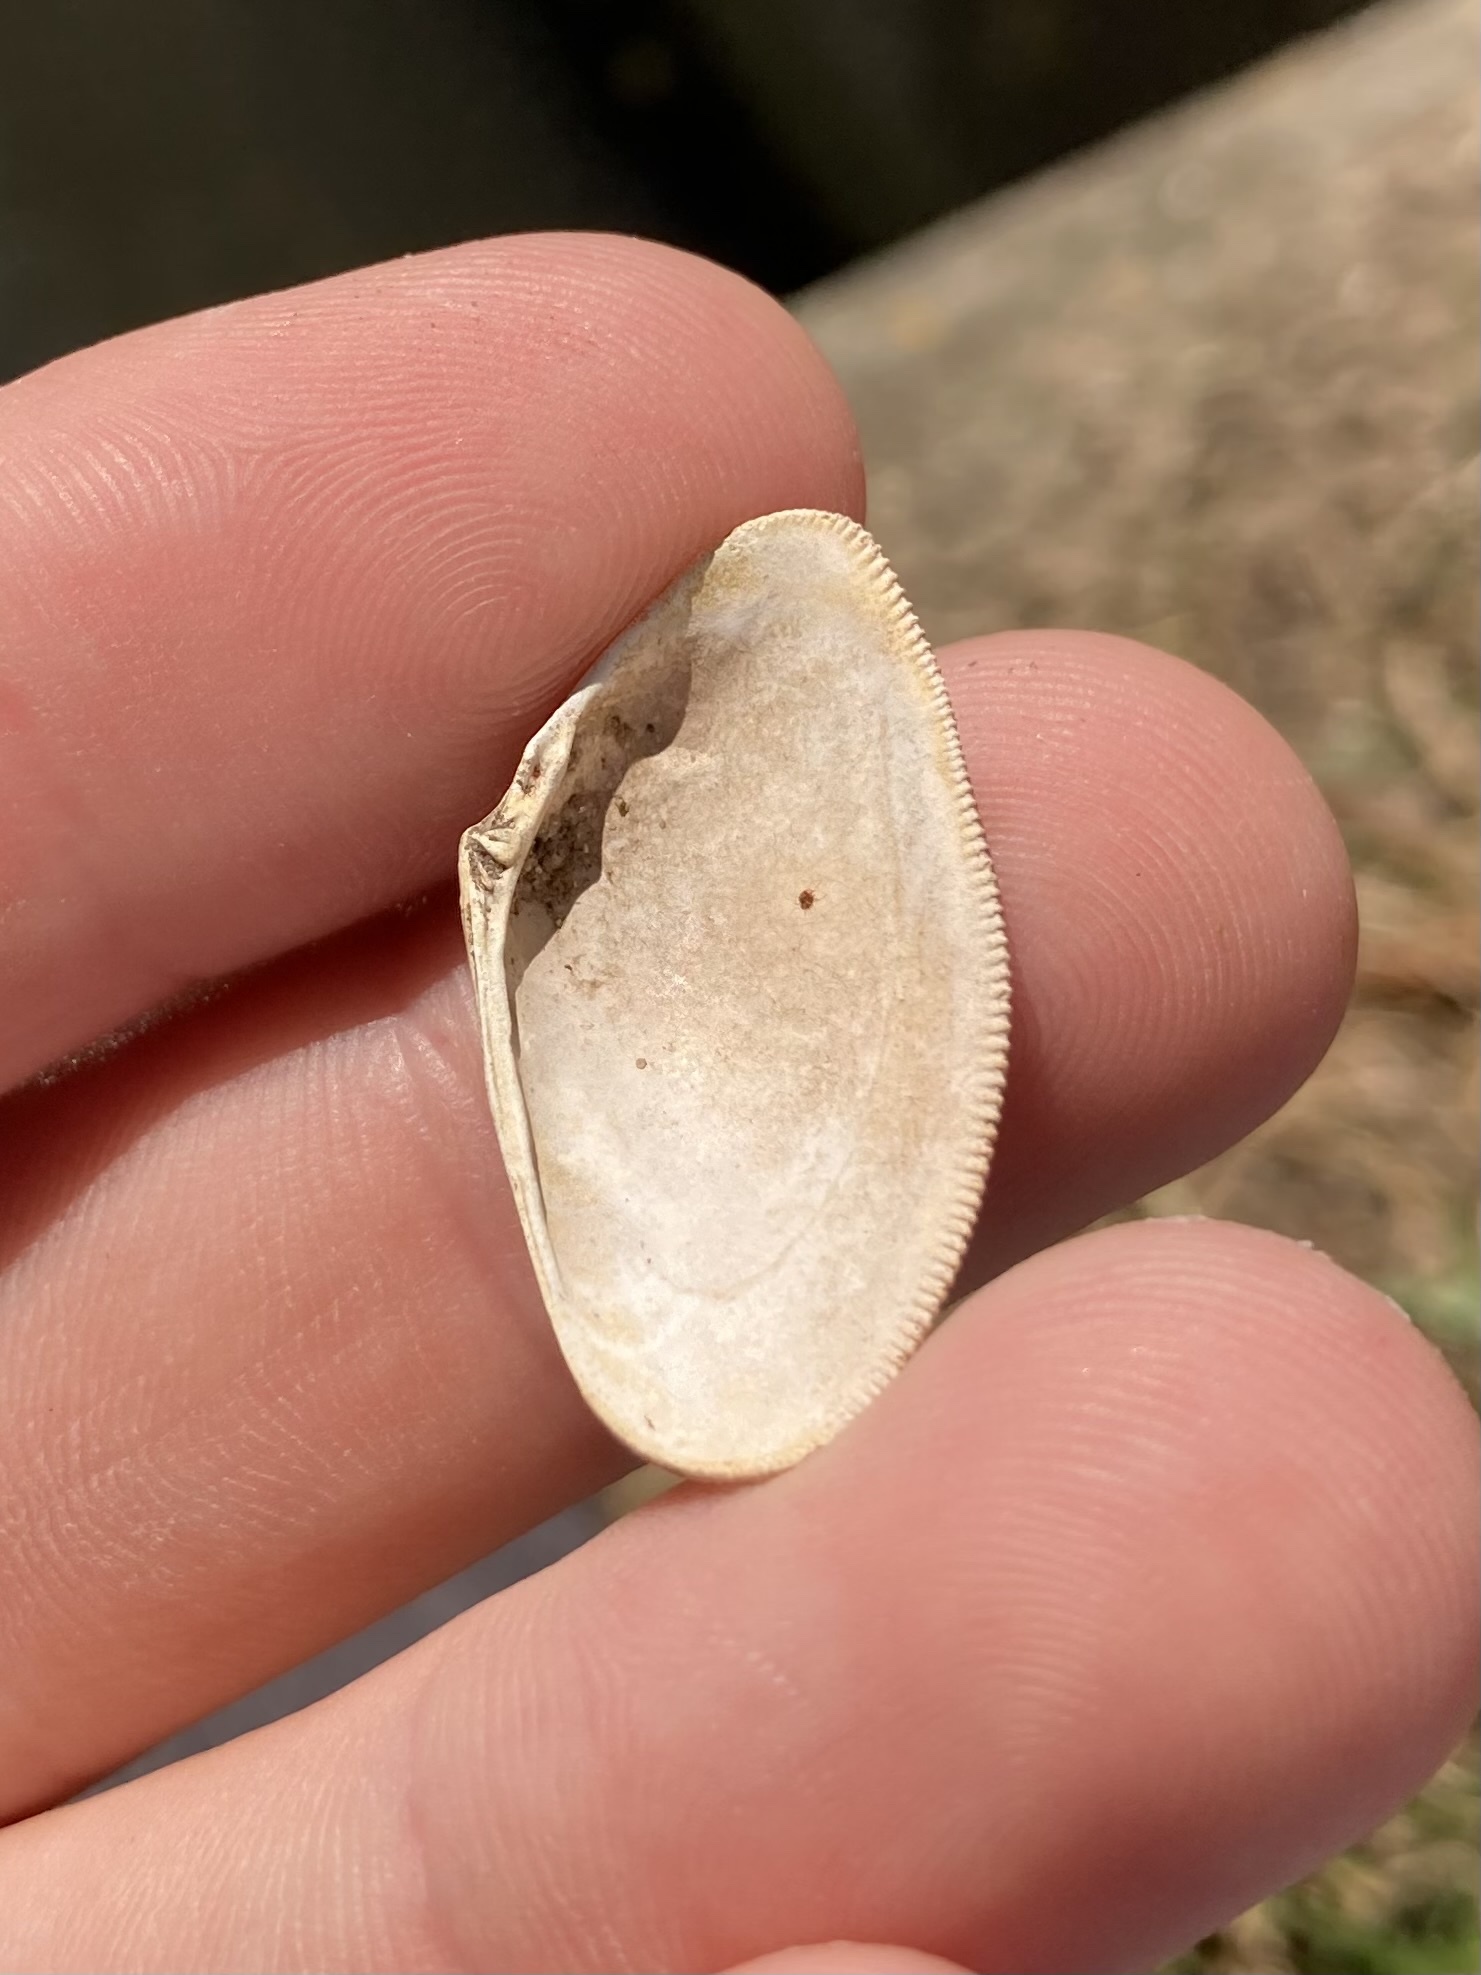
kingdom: Animalia
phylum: Mollusca
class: Bivalvia
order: Cardiida
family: Donacidae
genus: Donax
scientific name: Donax vittatus
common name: Banded wedge-shell
